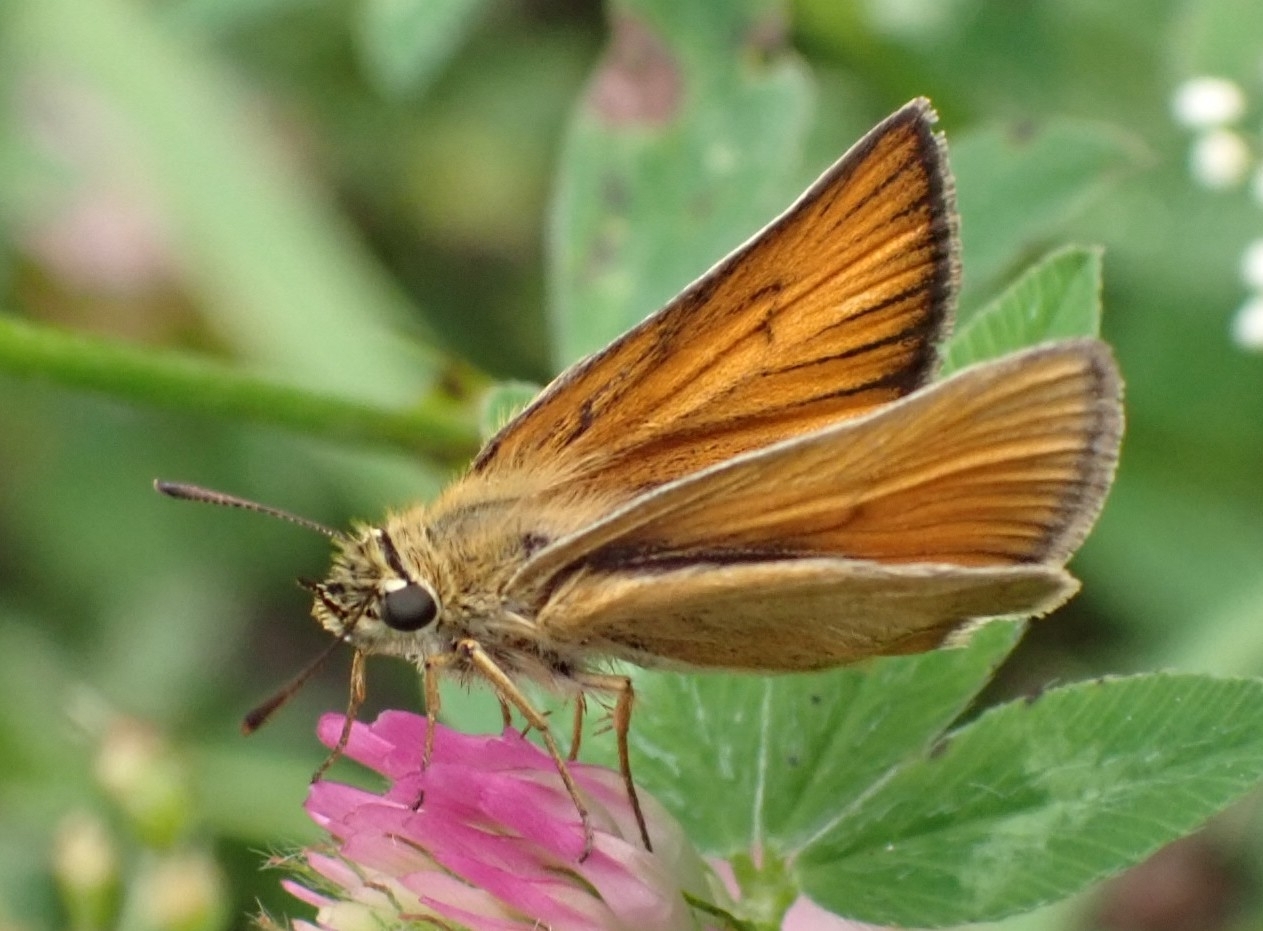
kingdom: Animalia
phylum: Arthropoda
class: Insecta
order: Lepidoptera
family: Hesperiidae
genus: Thymelicus
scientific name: Thymelicus lineola
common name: Essex skipper
